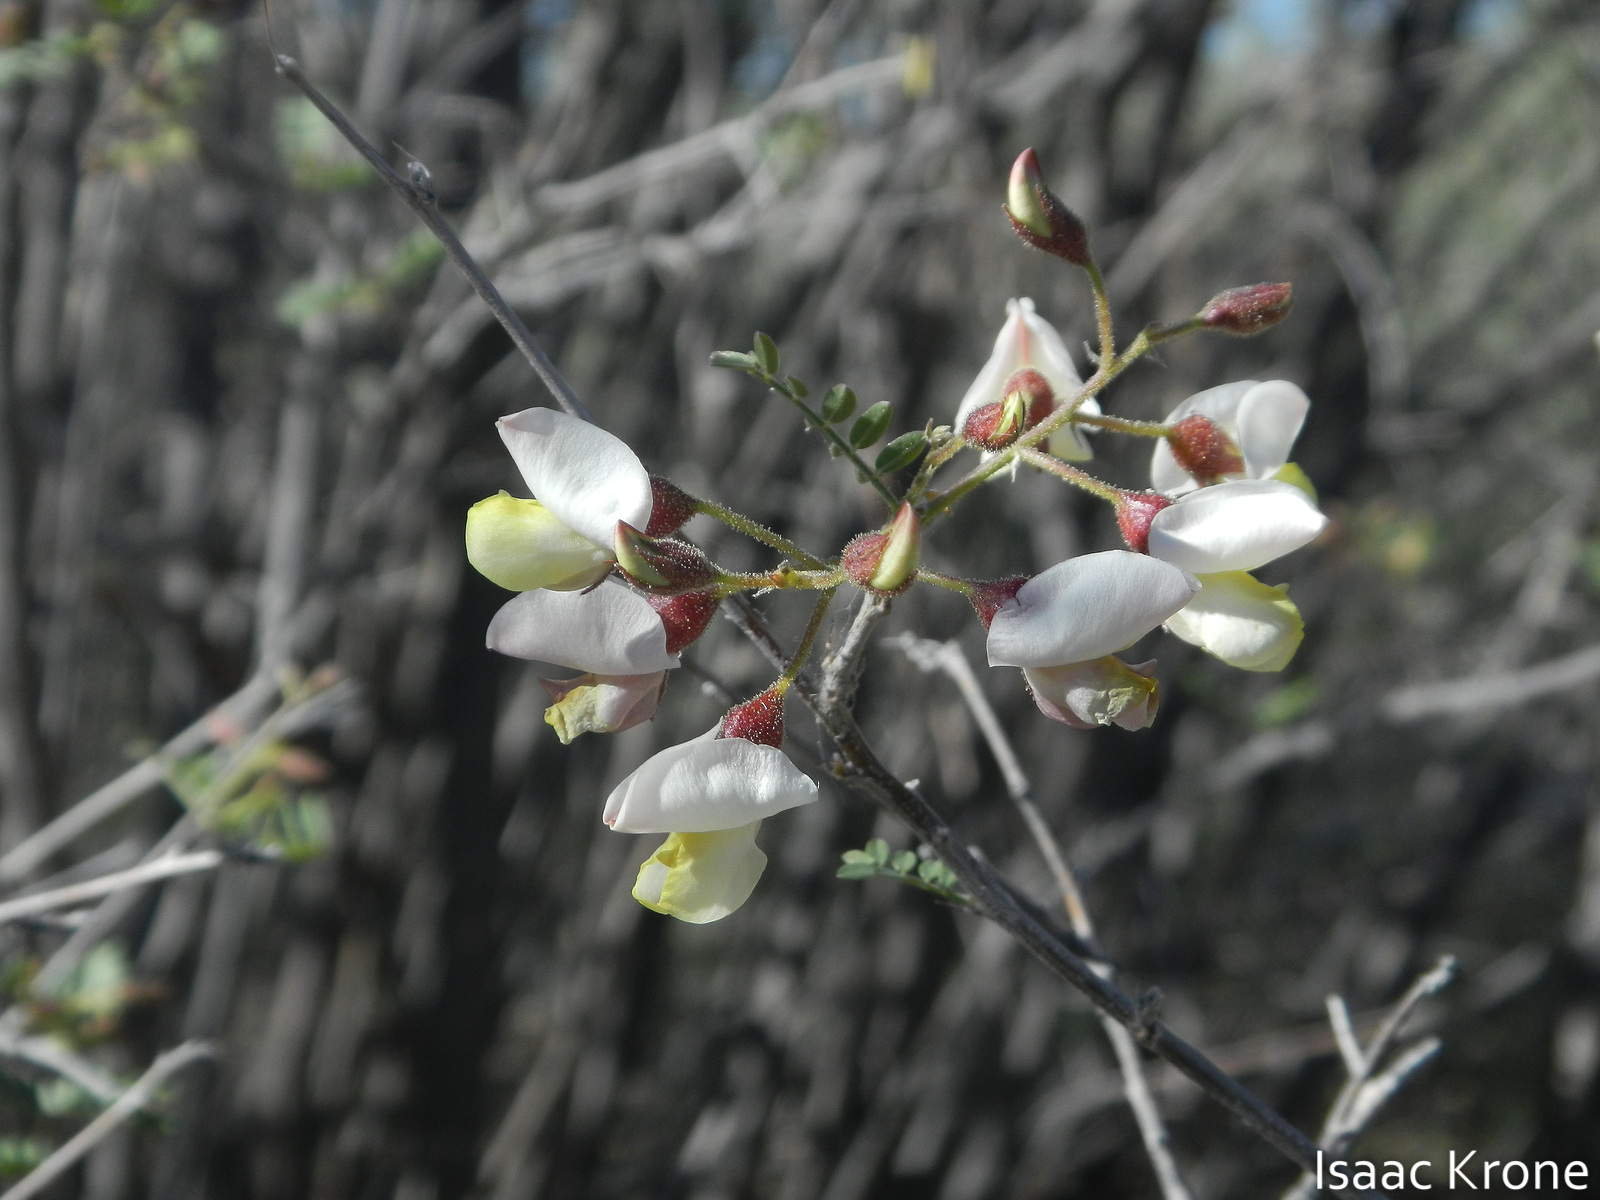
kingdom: Plantae
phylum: Tracheophyta
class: Magnoliopsida
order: Fabales
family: Fabaceae
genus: Coursetia
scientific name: Coursetia glandulosa
